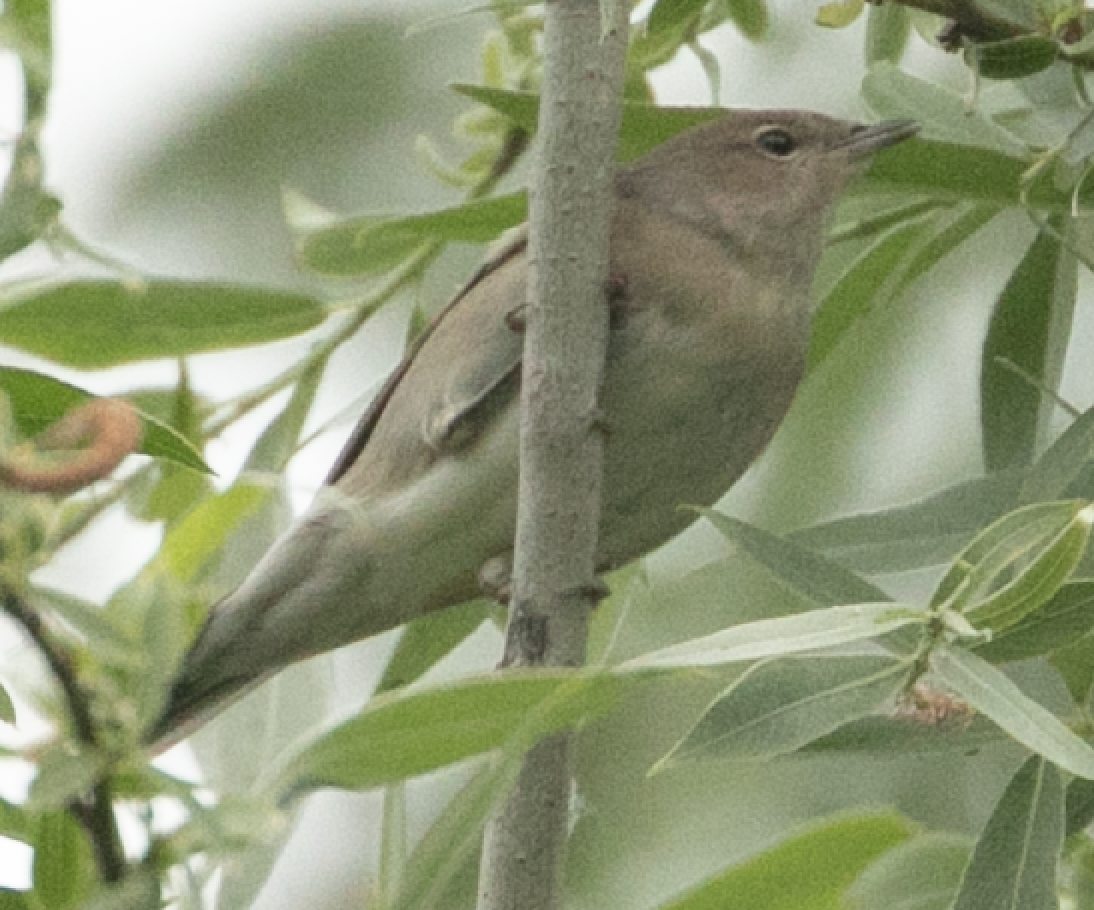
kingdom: Animalia
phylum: Chordata
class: Aves
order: Passeriformes
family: Sylviidae
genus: Sylvia
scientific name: Sylvia borin
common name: Garden warbler
